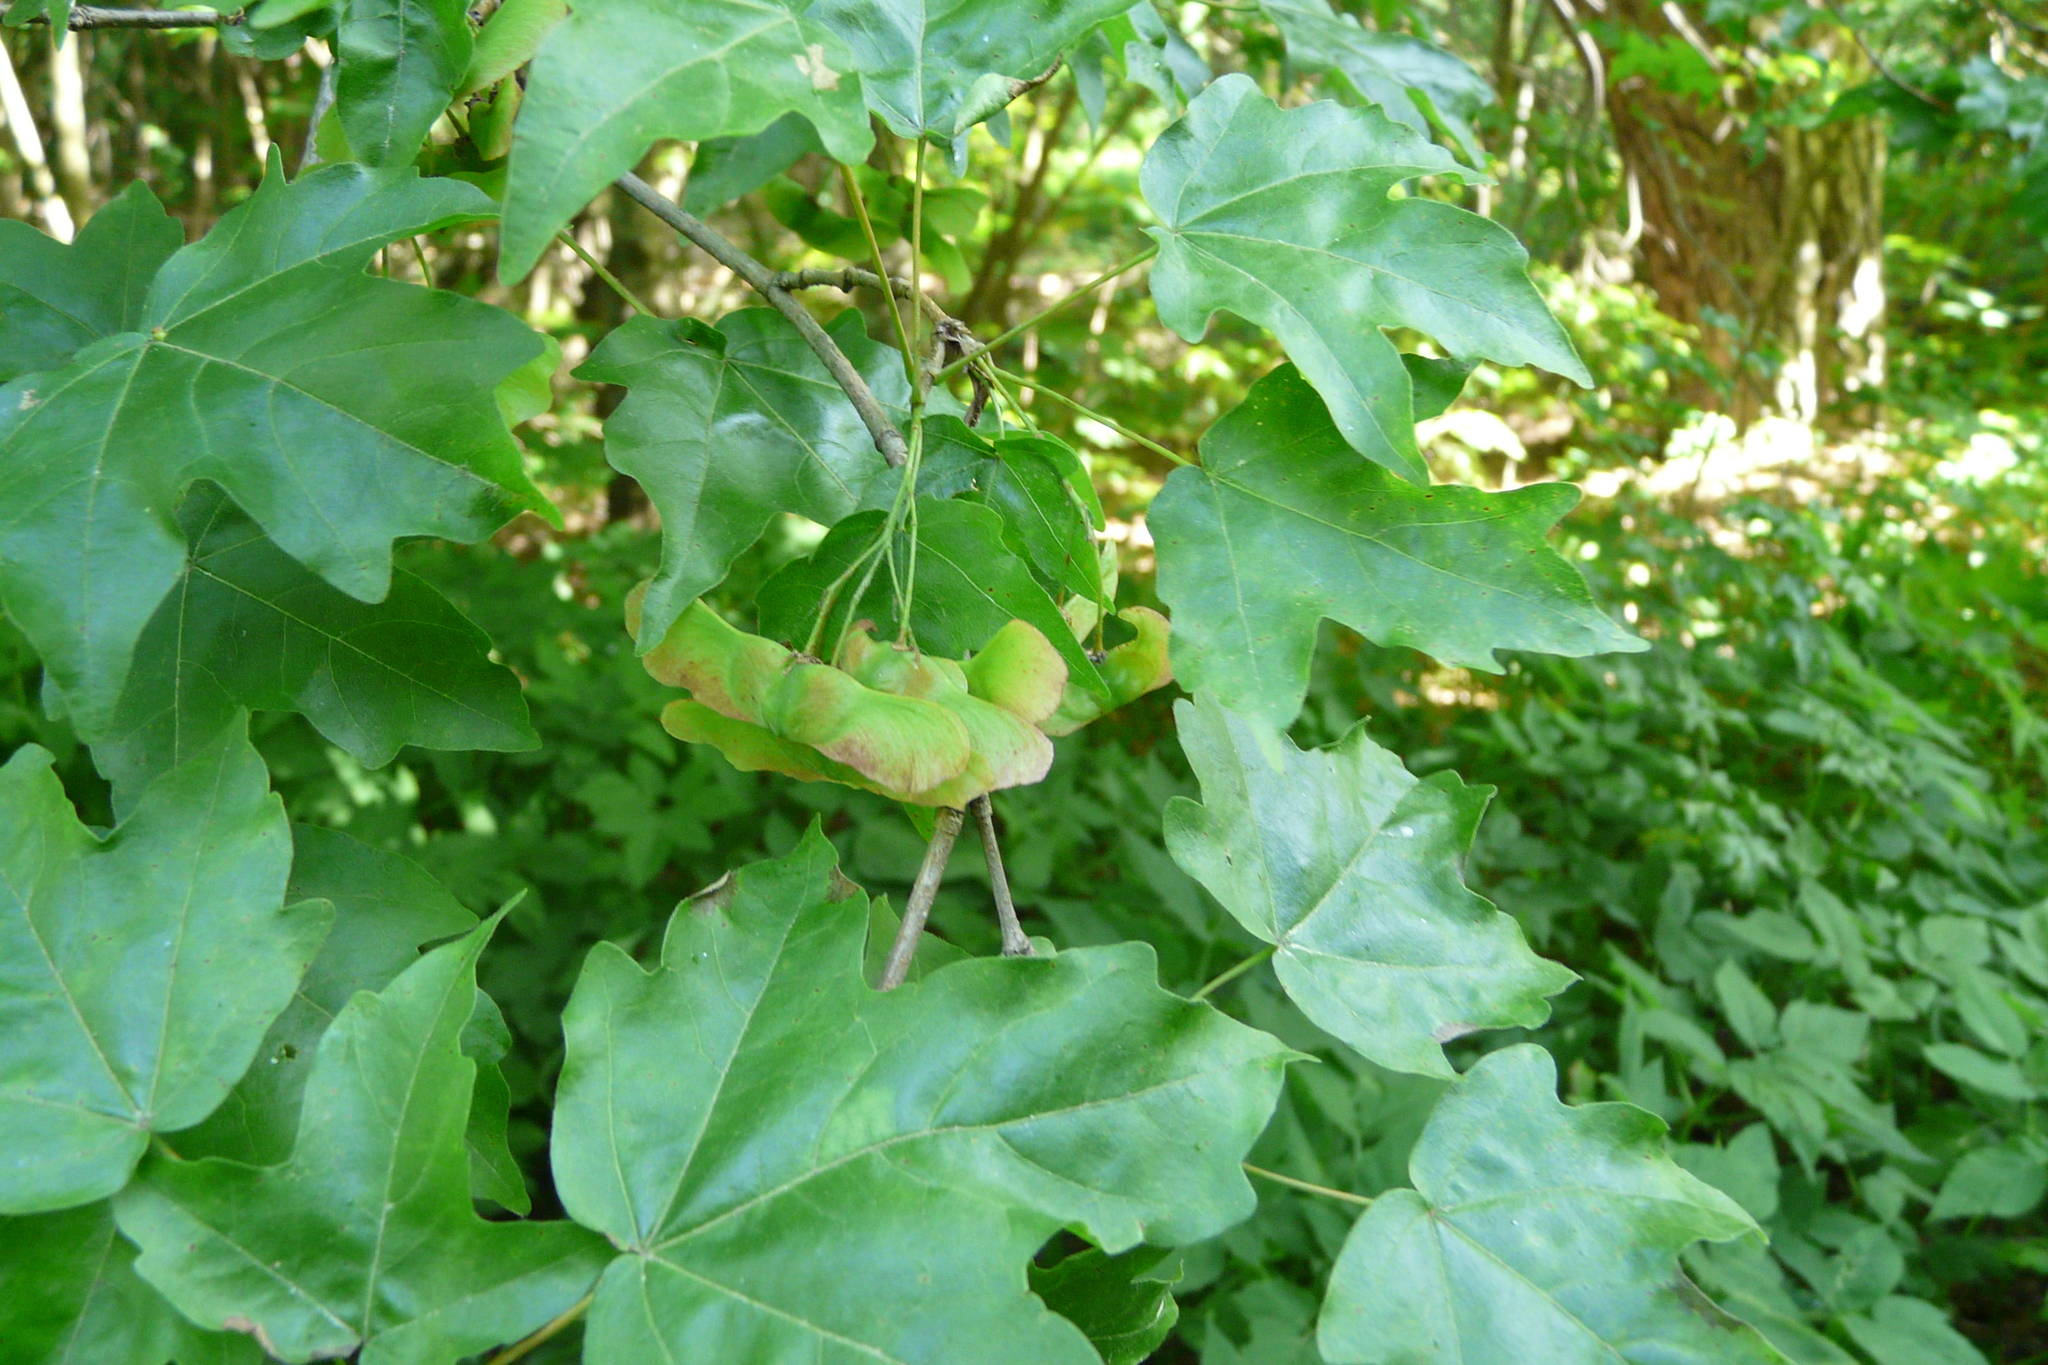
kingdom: Plantae
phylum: Tracheophyta
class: Magnoliopsida
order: Sapindales
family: Sapindaceae
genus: Acer
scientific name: Acer campestre
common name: Field maple
